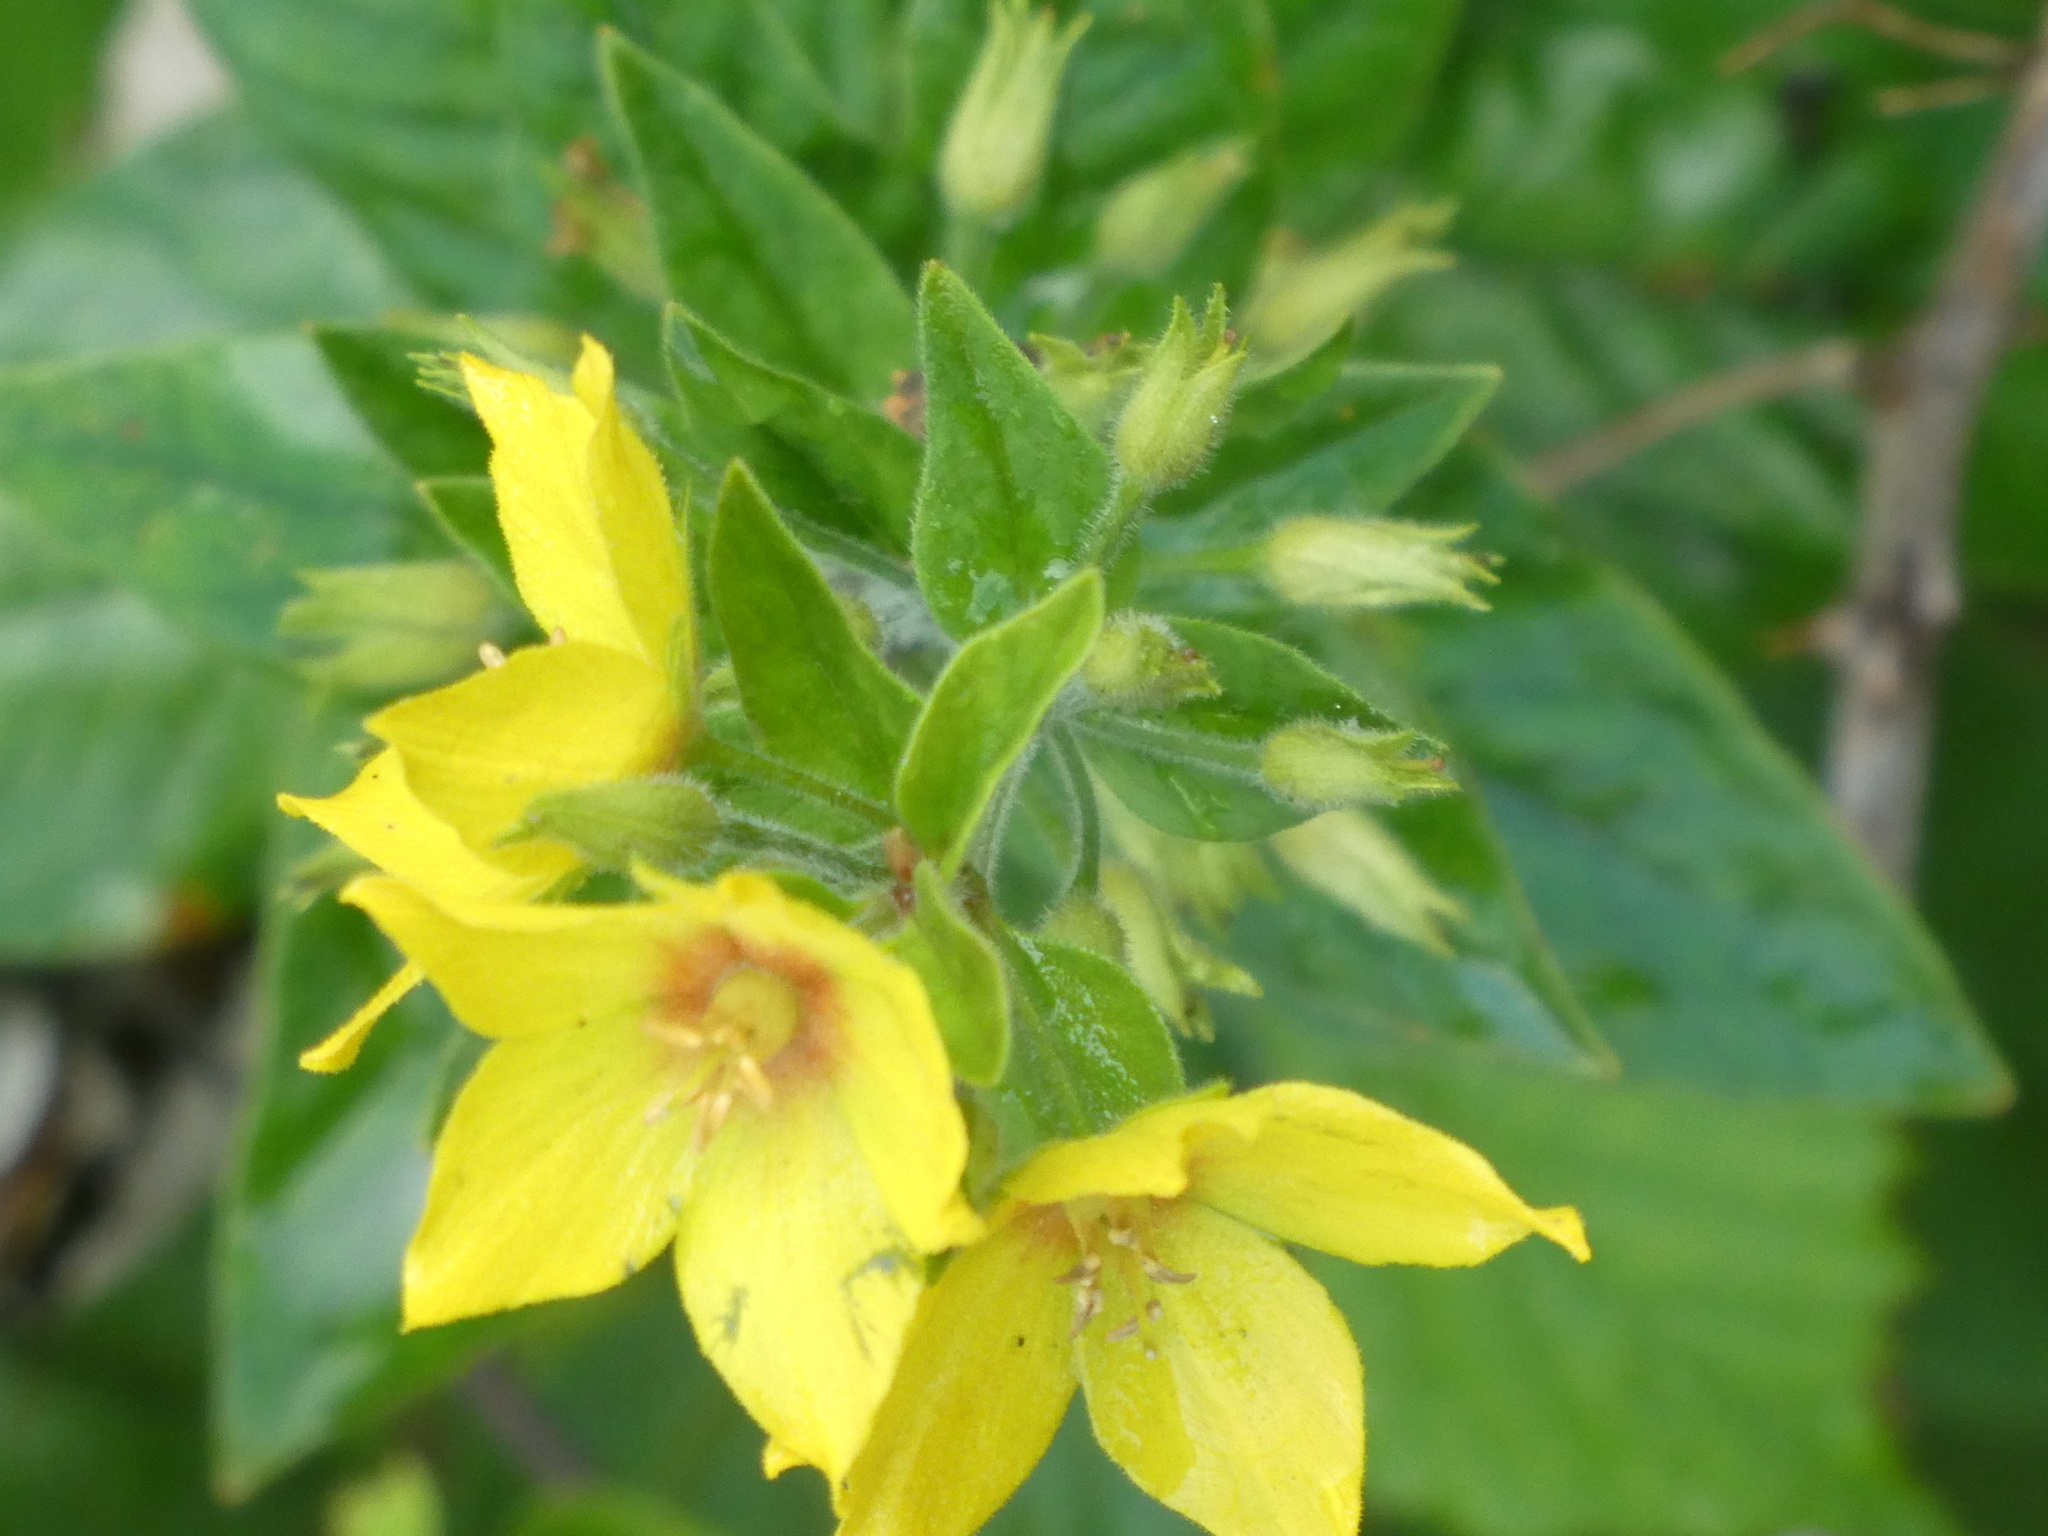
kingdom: Plantae
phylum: Tracheophyta
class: Magnoliopsida
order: Ericales
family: Primulaceae
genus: Lysimachia
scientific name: Lysimachia punctata
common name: Dotted loosestrife
